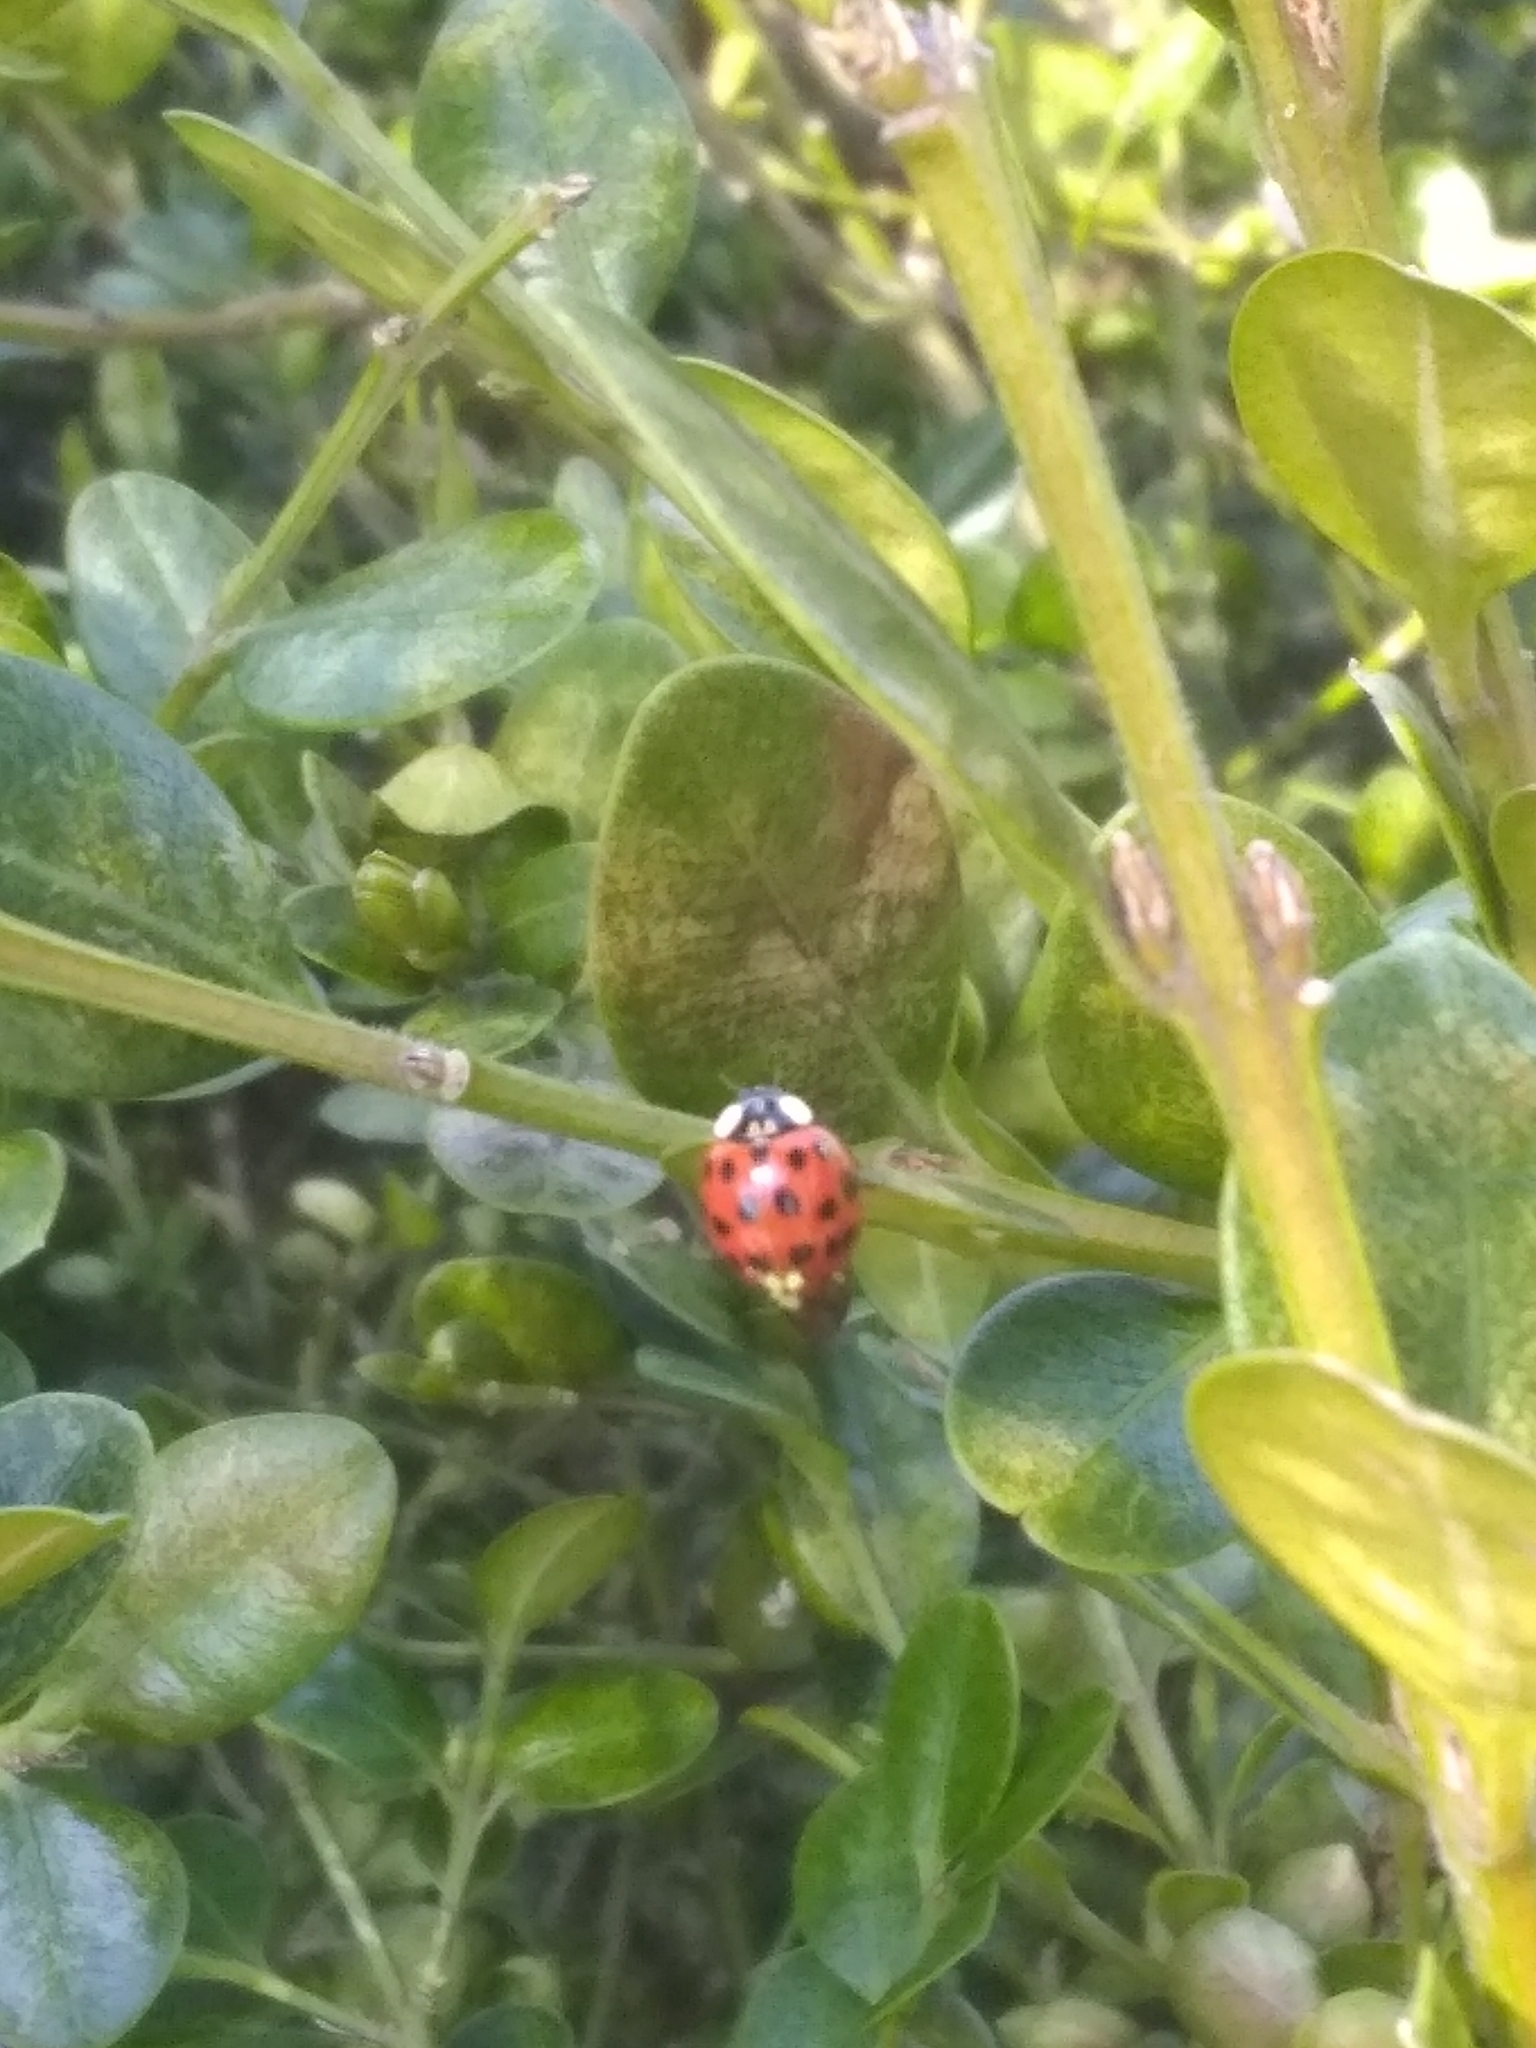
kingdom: Animalia
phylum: Arthropoda
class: Insecta
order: Coleoptera
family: Coccinellidae
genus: Harmonia
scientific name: Harmonia axyridis
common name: Harlequin ladybird
